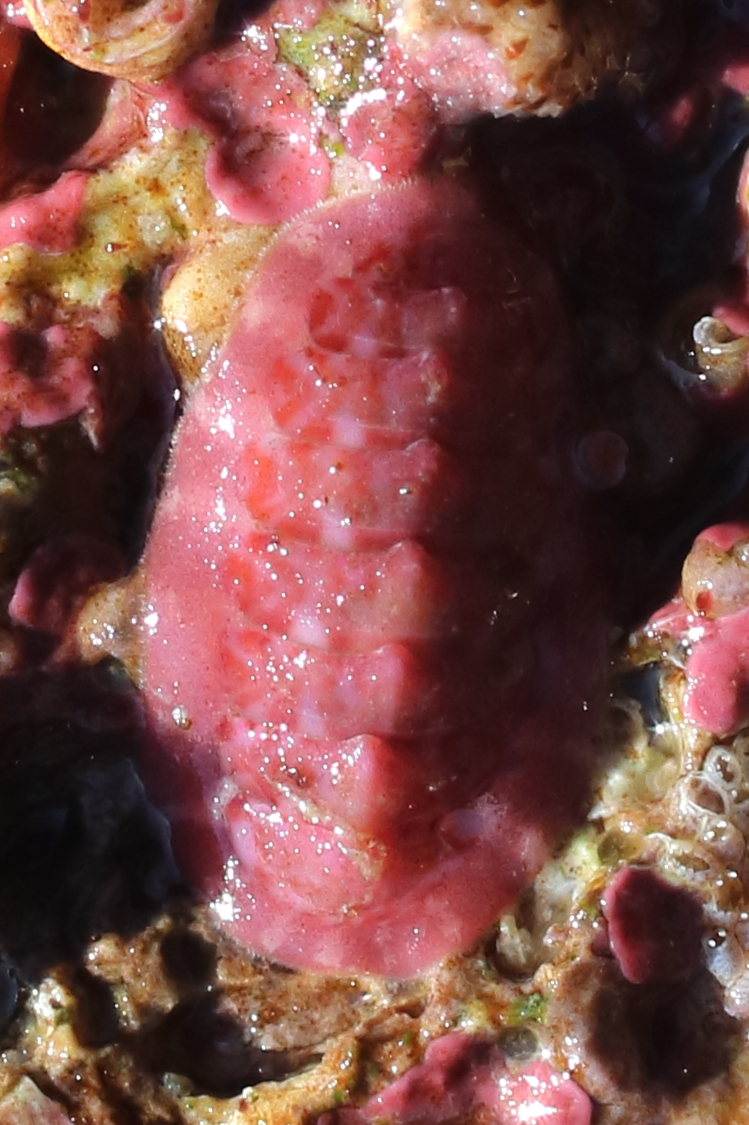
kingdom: Animalia
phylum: Mollusca
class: Polyplacophora
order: Chitonida
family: Tonicellidae
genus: Tonicella
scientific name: Tonicella venusta
